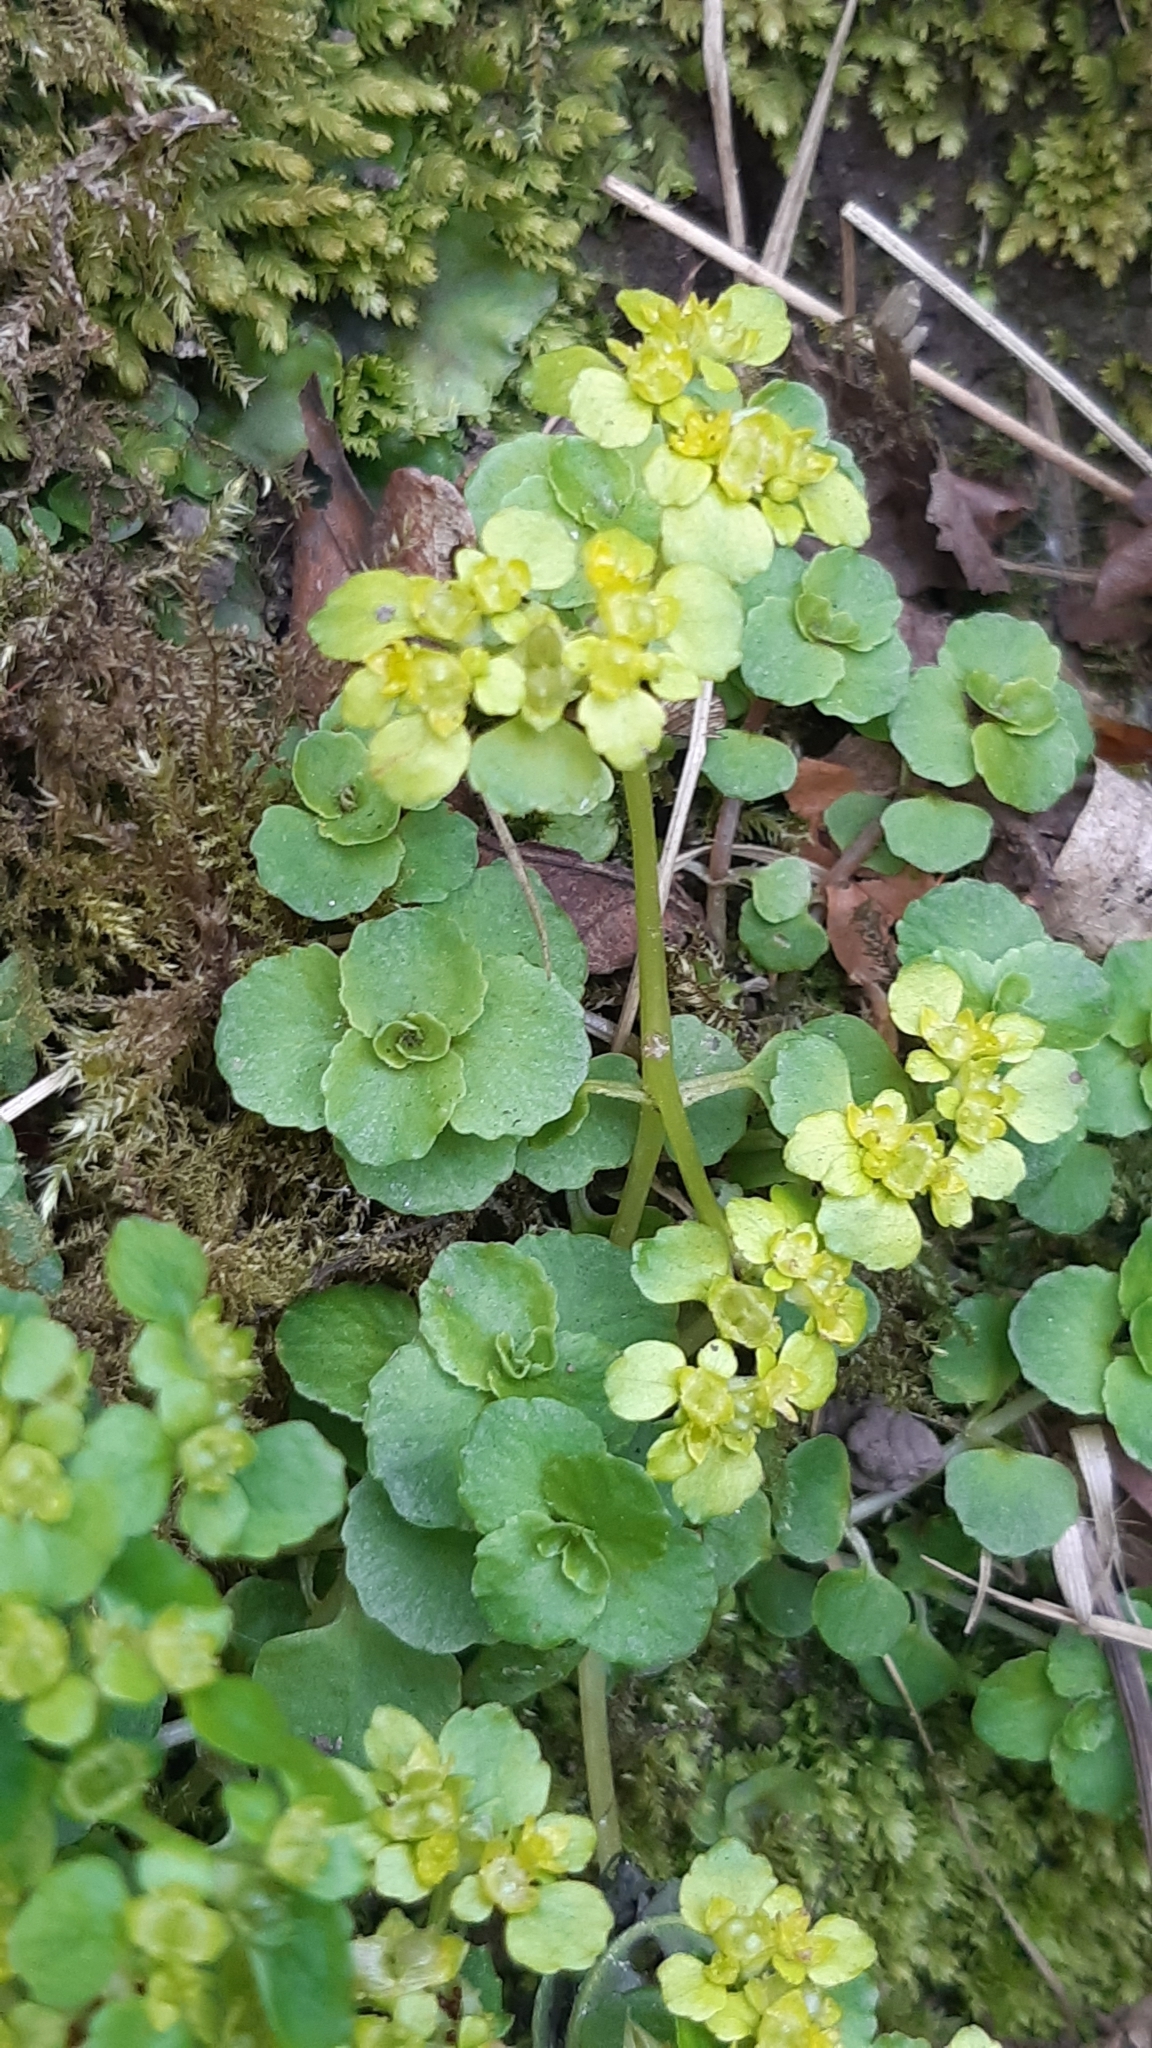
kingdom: Plantae
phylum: Tracheophyta
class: Magnoliopsida
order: Saxifragales
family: Saxifragaceae
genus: Chrysosplenium
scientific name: Chrysosplenium oppositifolium
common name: Opposite-leaved golden-saxifrage
